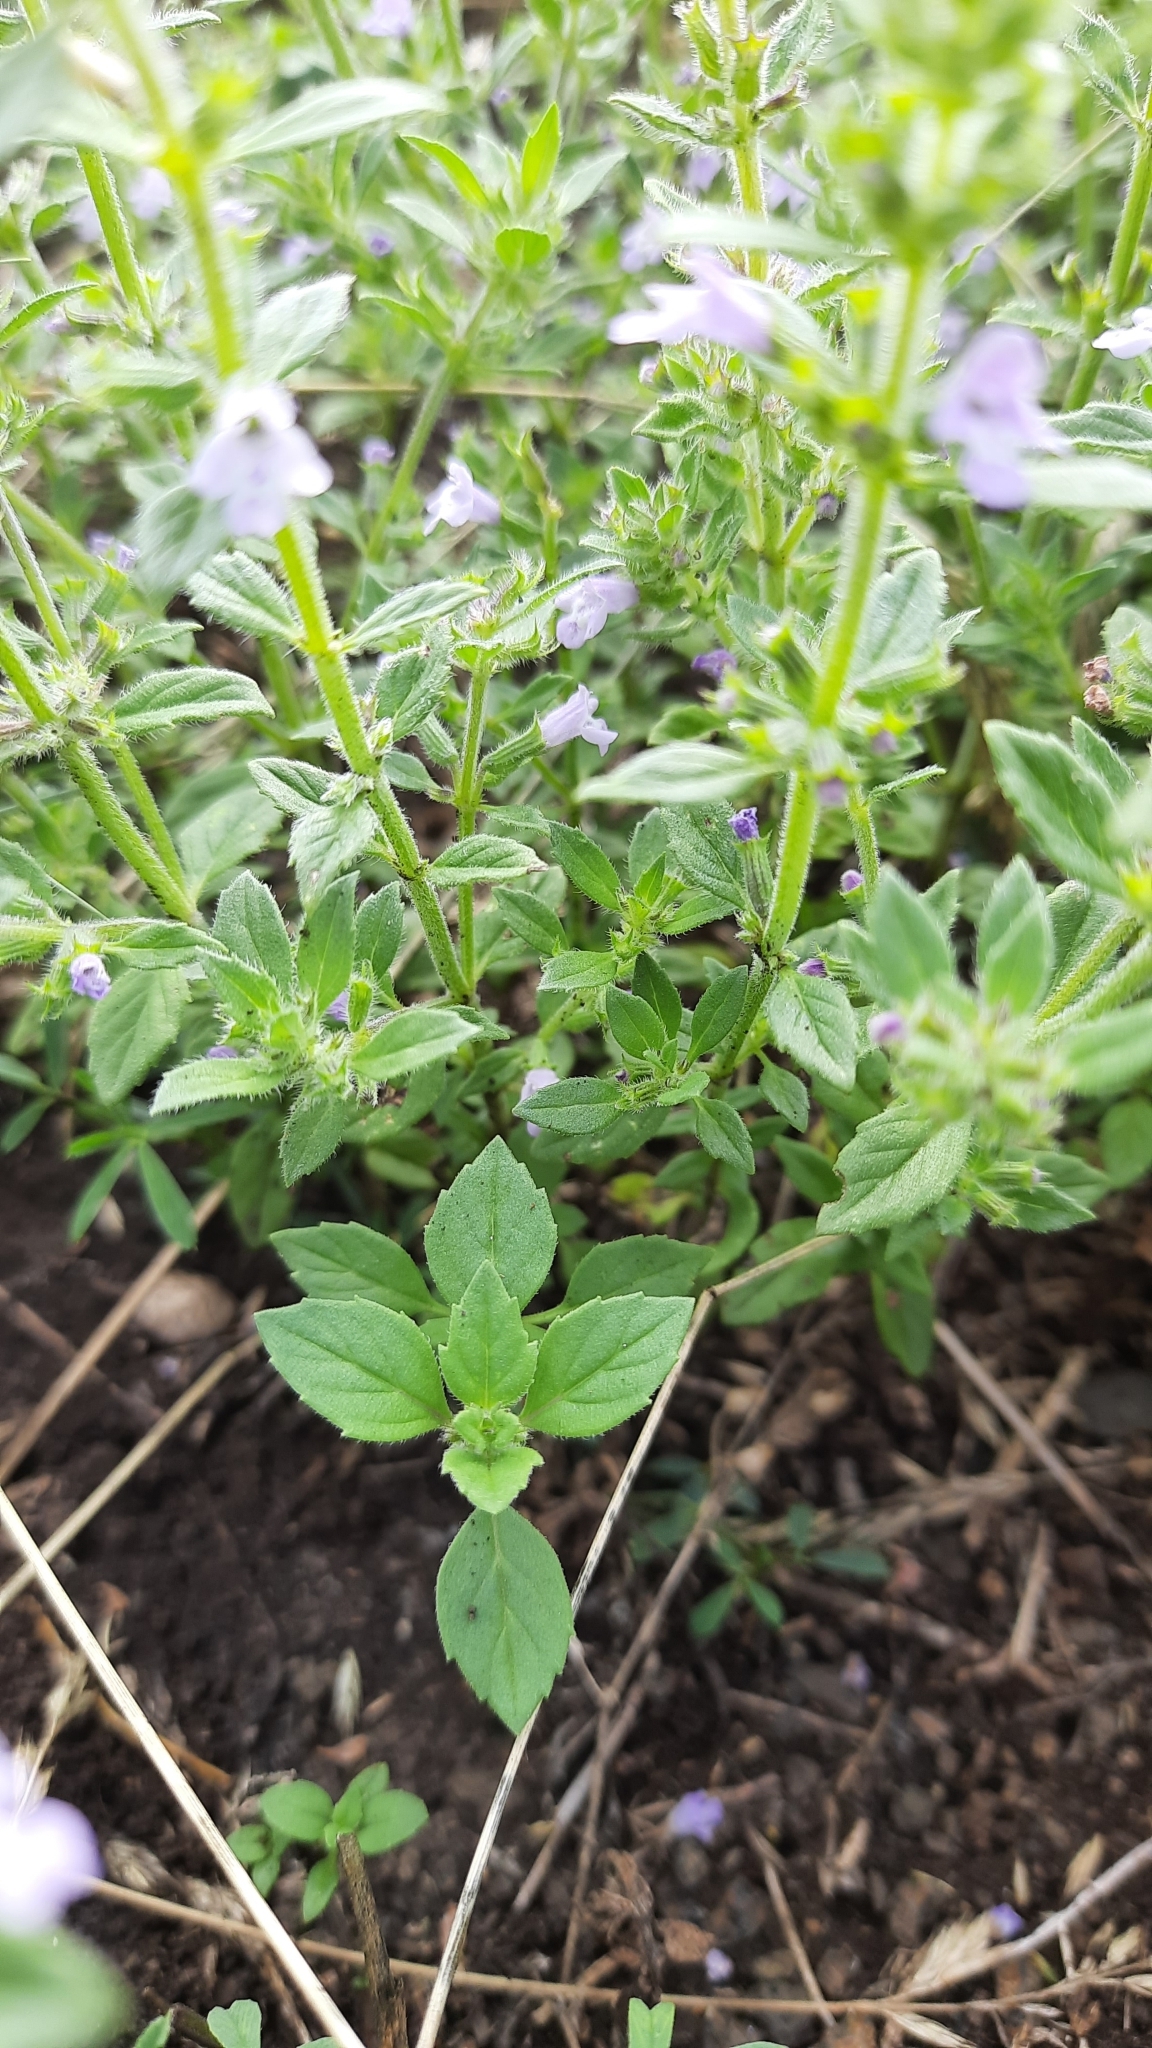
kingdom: Plantae
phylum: Tracheophyta
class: Magnoliopsida
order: Lamiales
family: Lamiaceae
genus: Clinopodium
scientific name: Clinopodium acinos
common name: Basil thyme
